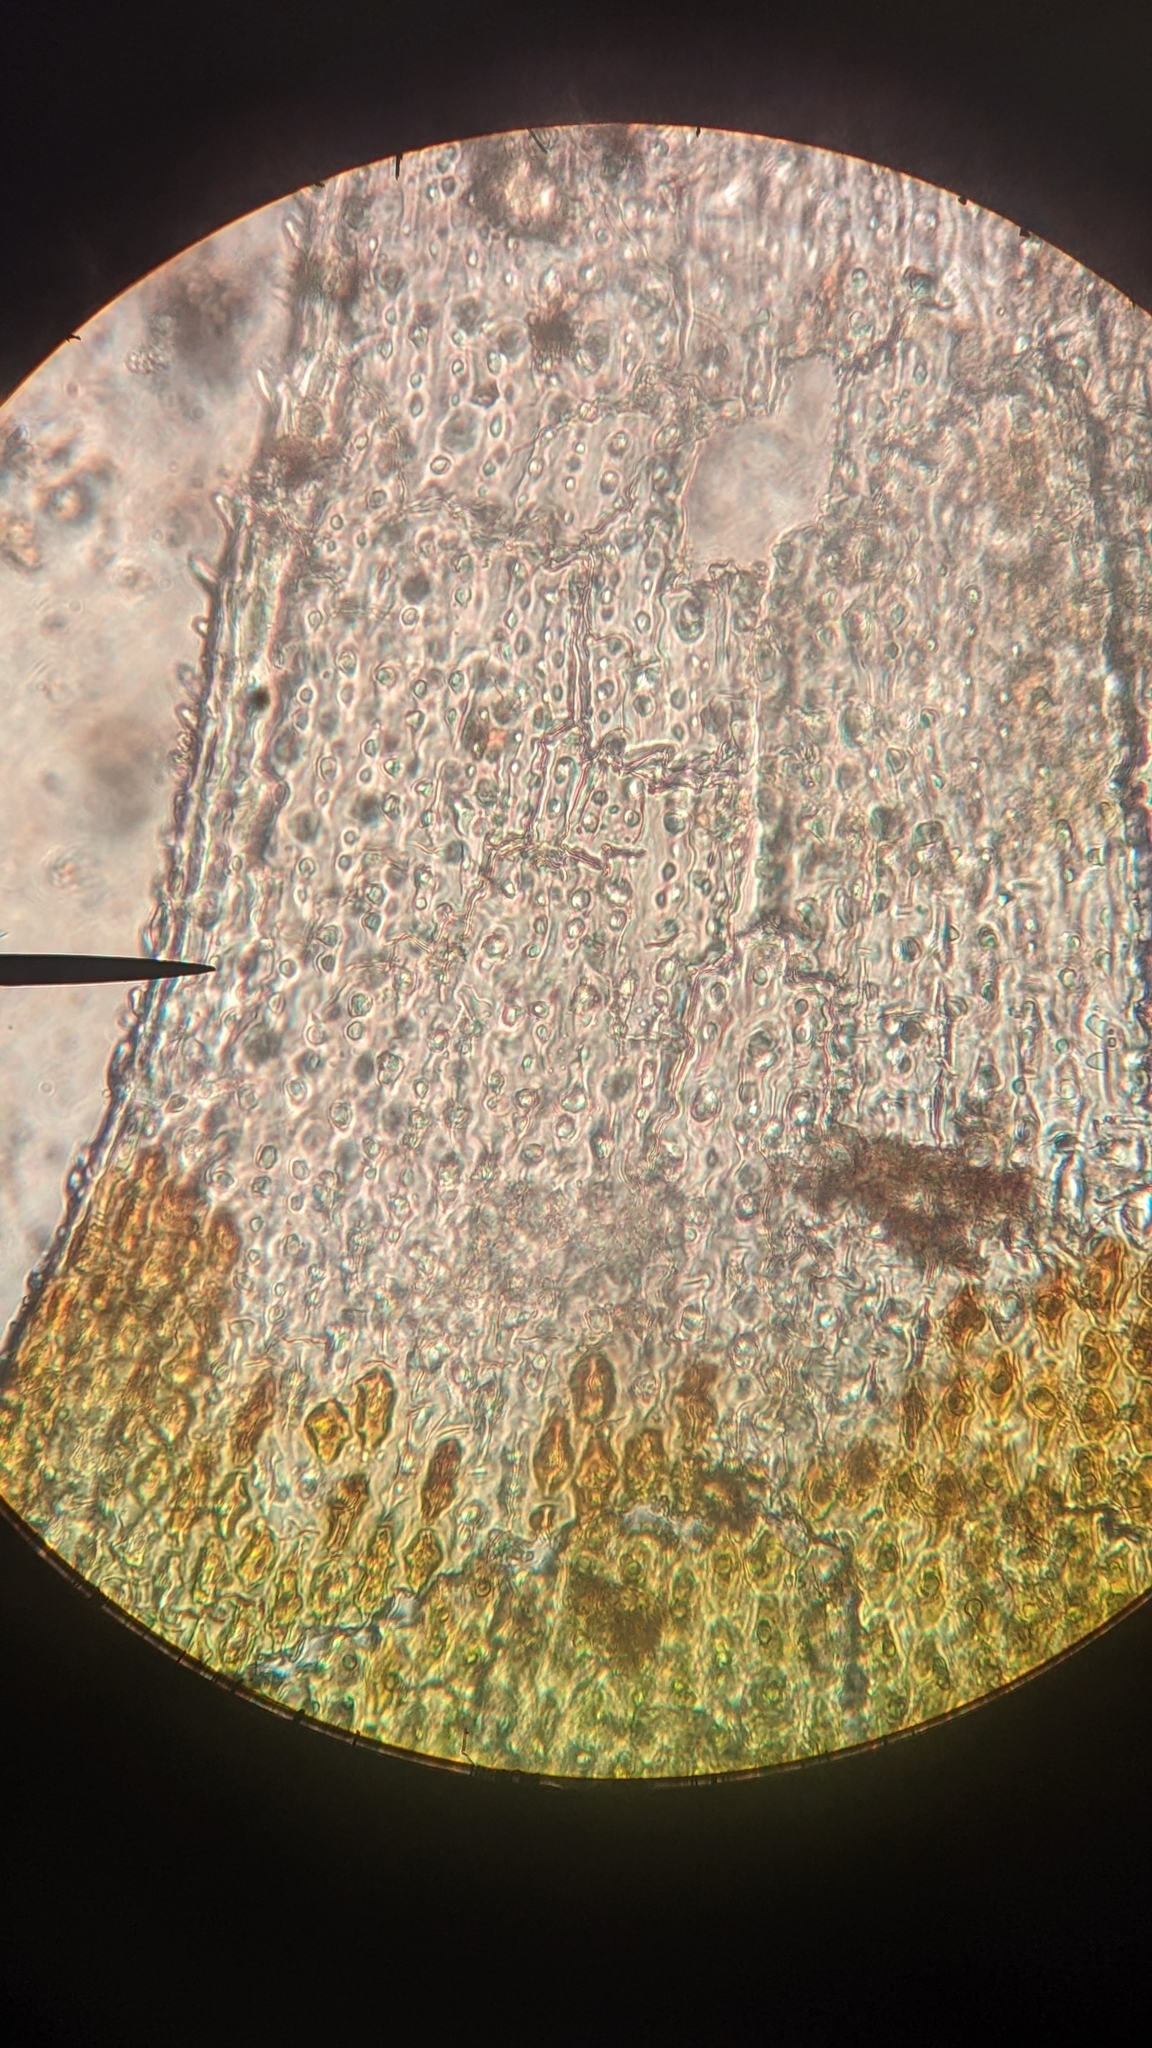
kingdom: Plantae
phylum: Bryophyta
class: Bryopsida
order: Hedwigiales
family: Hedwigiaceae
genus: Hedwigia
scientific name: Hedwigia stellata
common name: Starry hoar-moss
